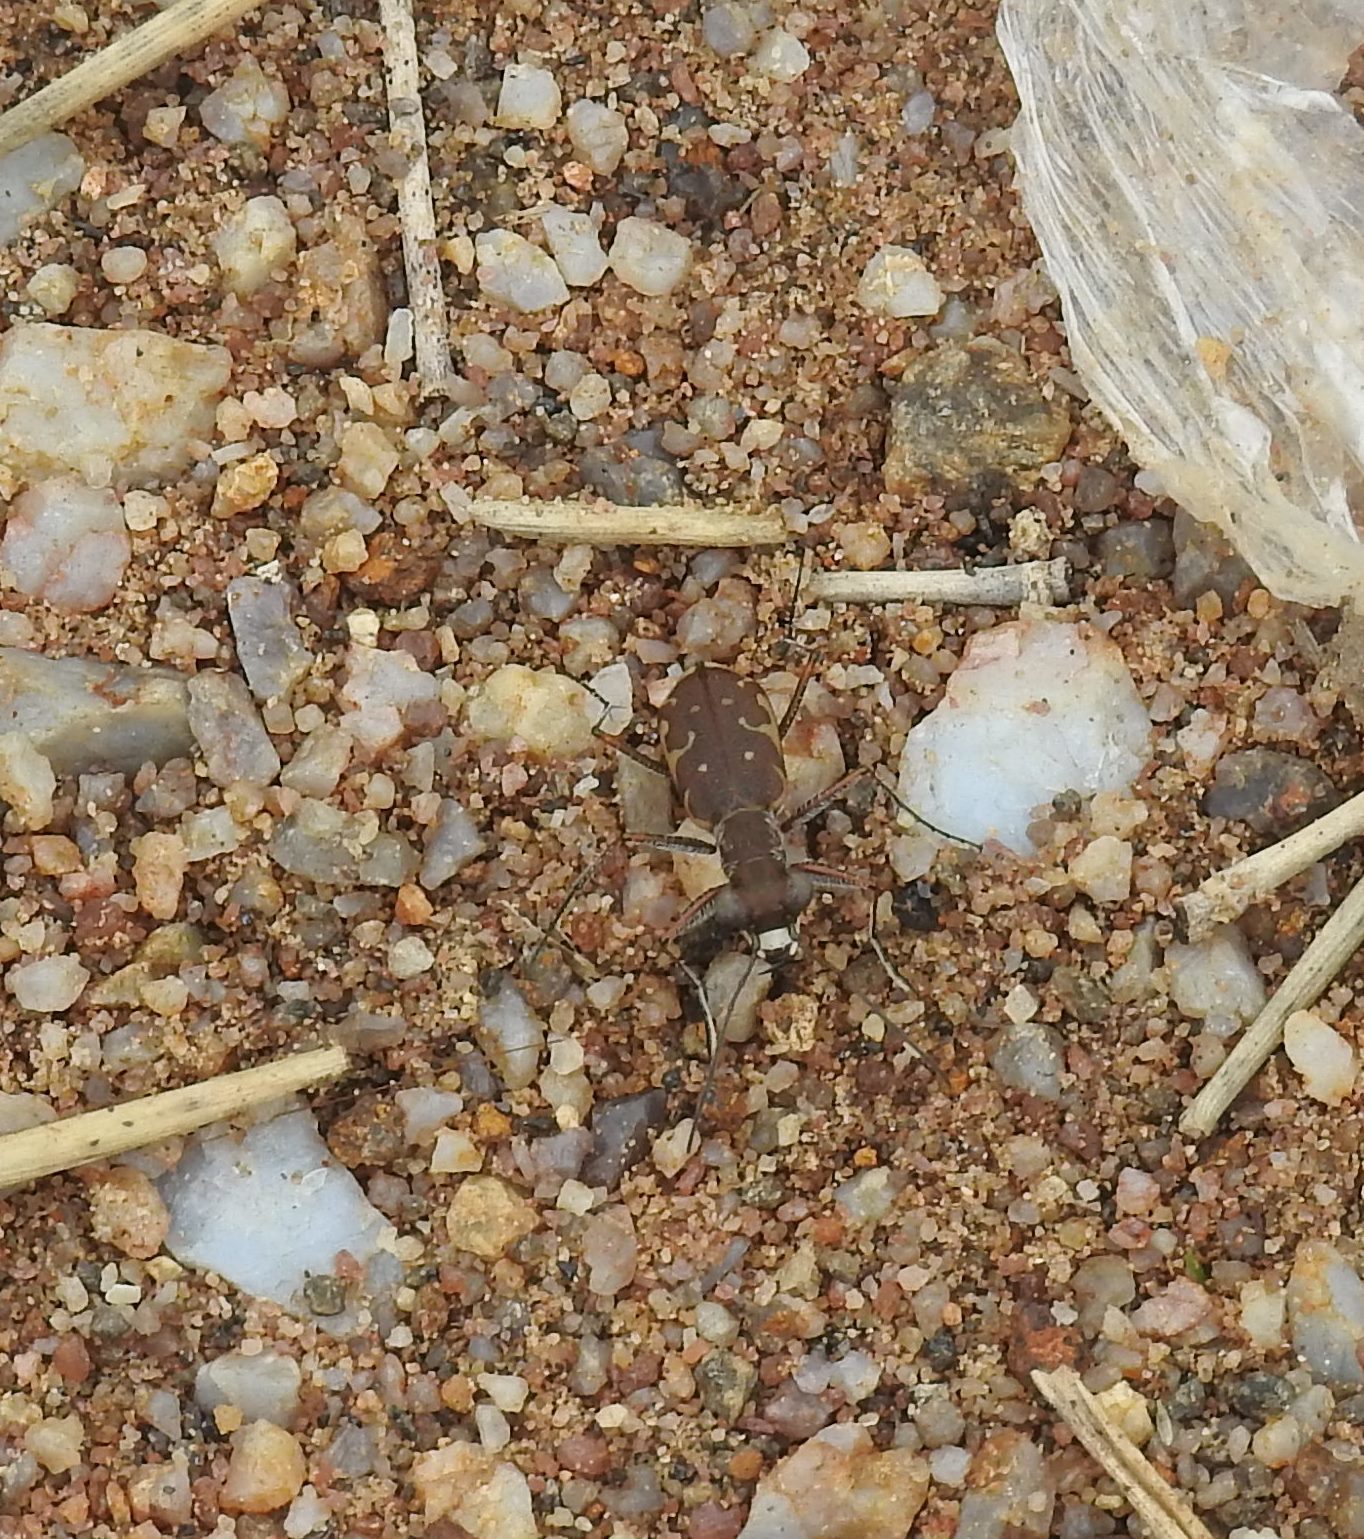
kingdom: Animalia
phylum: Arthropoda
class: Insecta
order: Coleoptera
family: Carabidae
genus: Myriochila
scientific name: Myriochila fastidiosa
